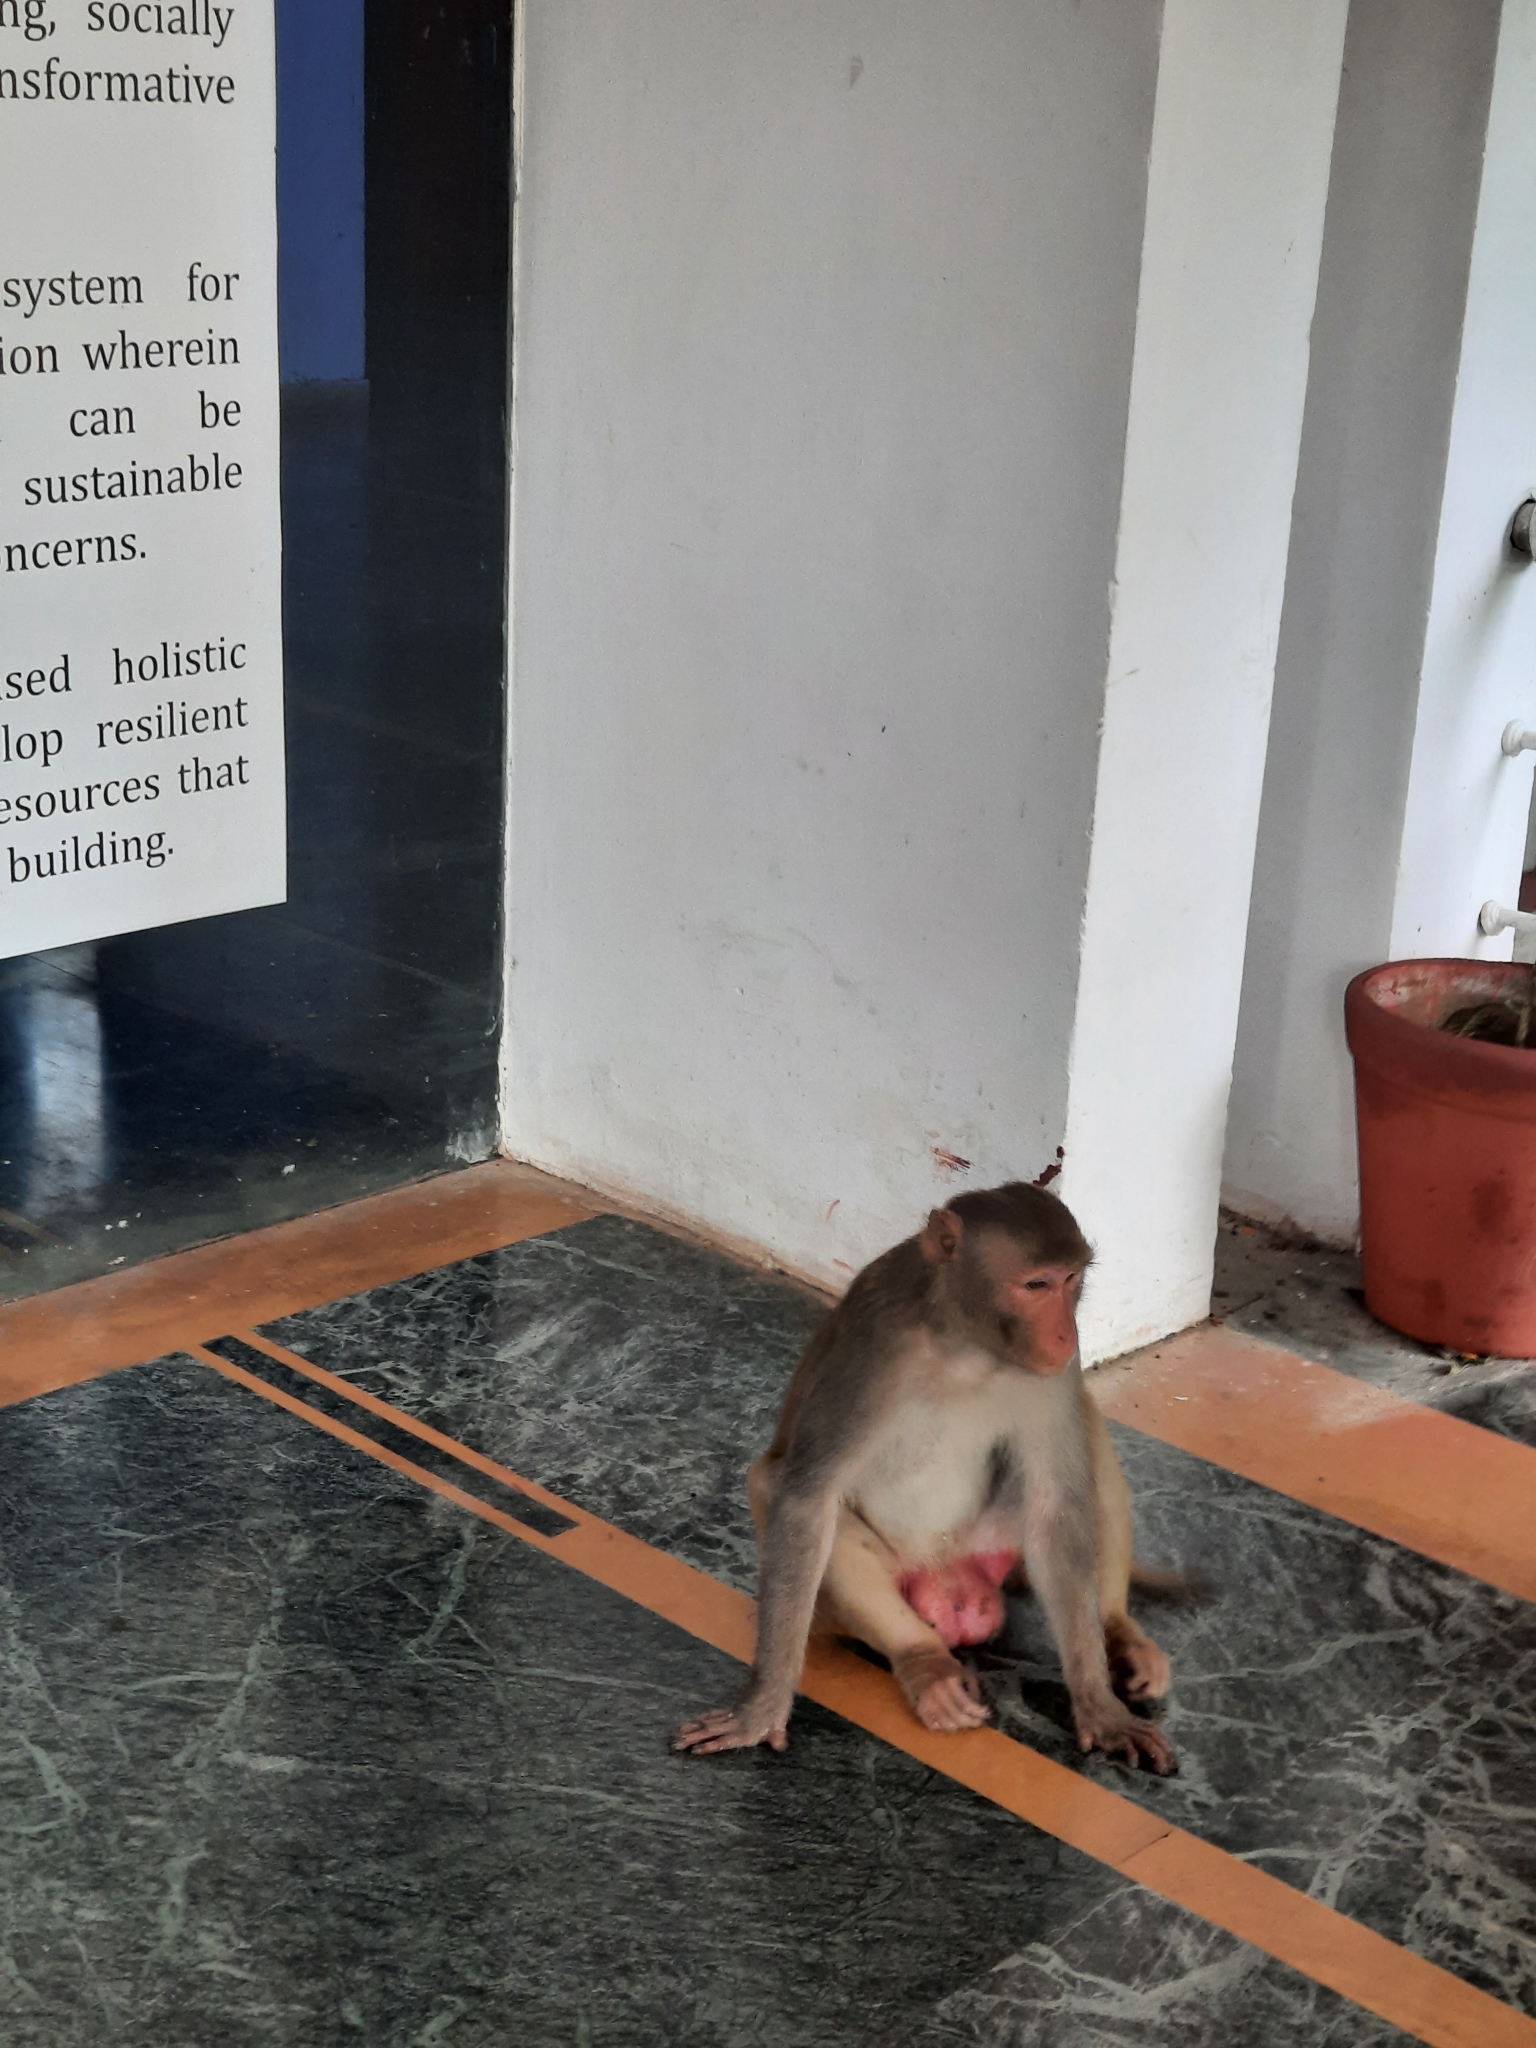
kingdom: Animalia
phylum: Chordata
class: Mammalia
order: Primates
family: Cercopithecidae
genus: Macaca
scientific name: Macaca mulatta
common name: Rhesus monkey
